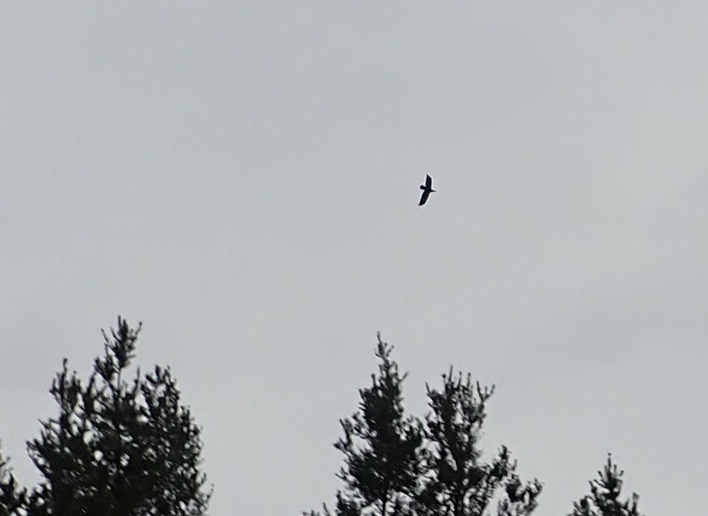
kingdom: Animalia
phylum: Chordata
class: Aves
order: Passeriformes
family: Corvidae
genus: Corvus
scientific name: Corvus corax
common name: Common raven
